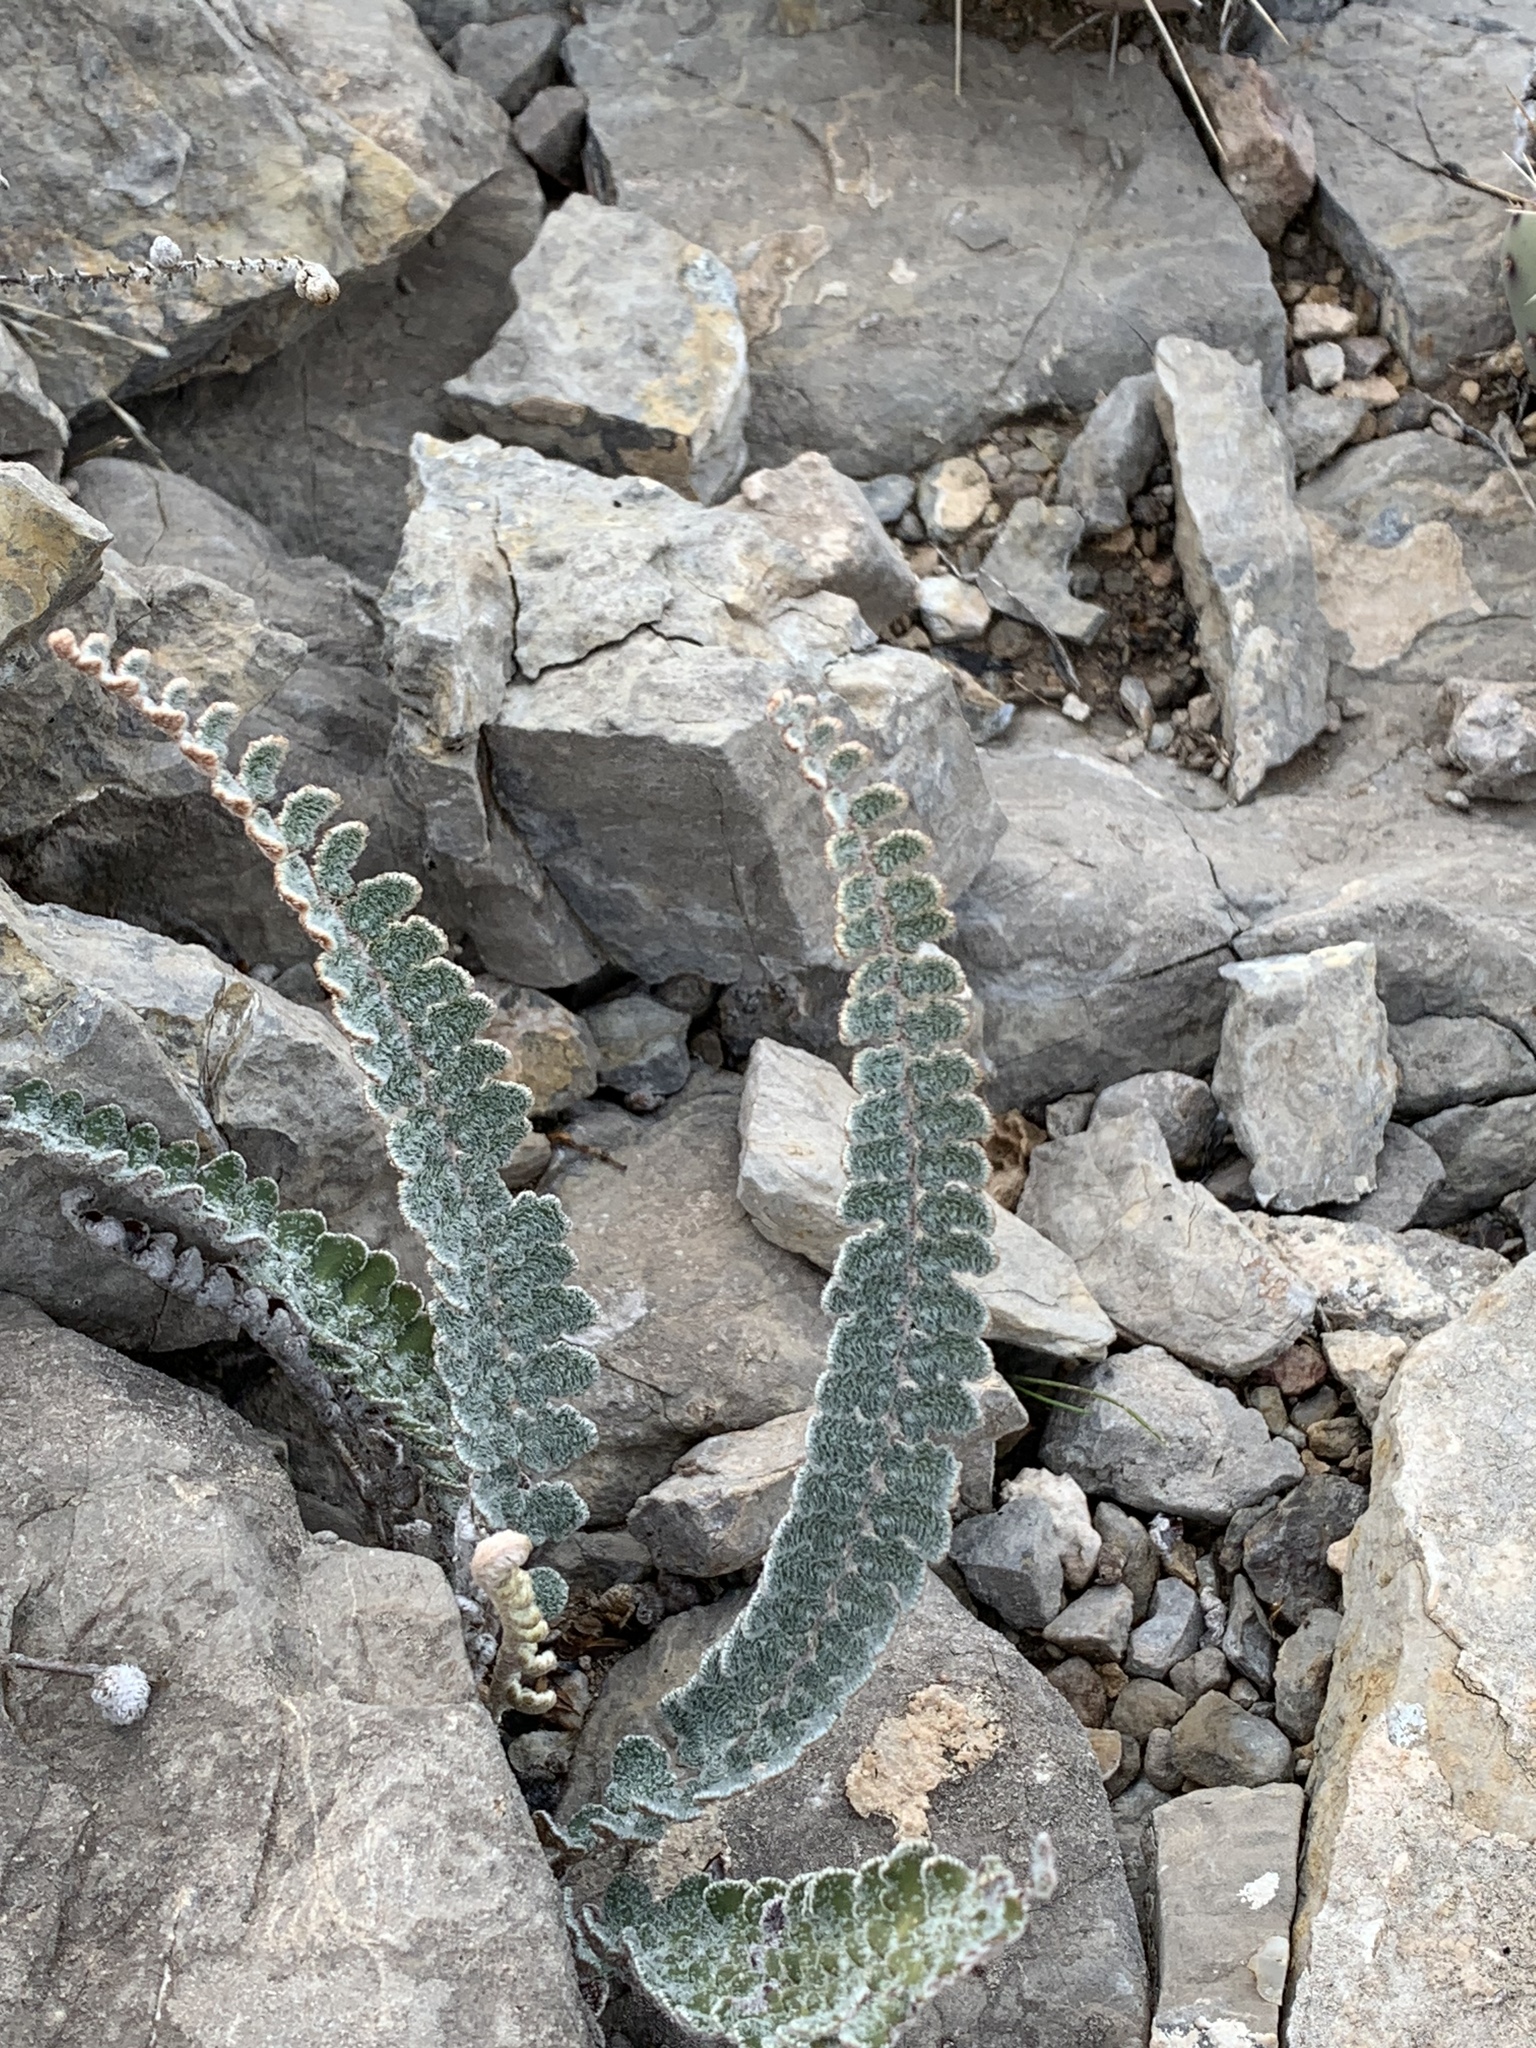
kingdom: Plantae
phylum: Tracheophyta
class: Polypodiopsida
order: Polypodiales
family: Pteridaceae
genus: Astrolepis
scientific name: Astrolepis integerrima
